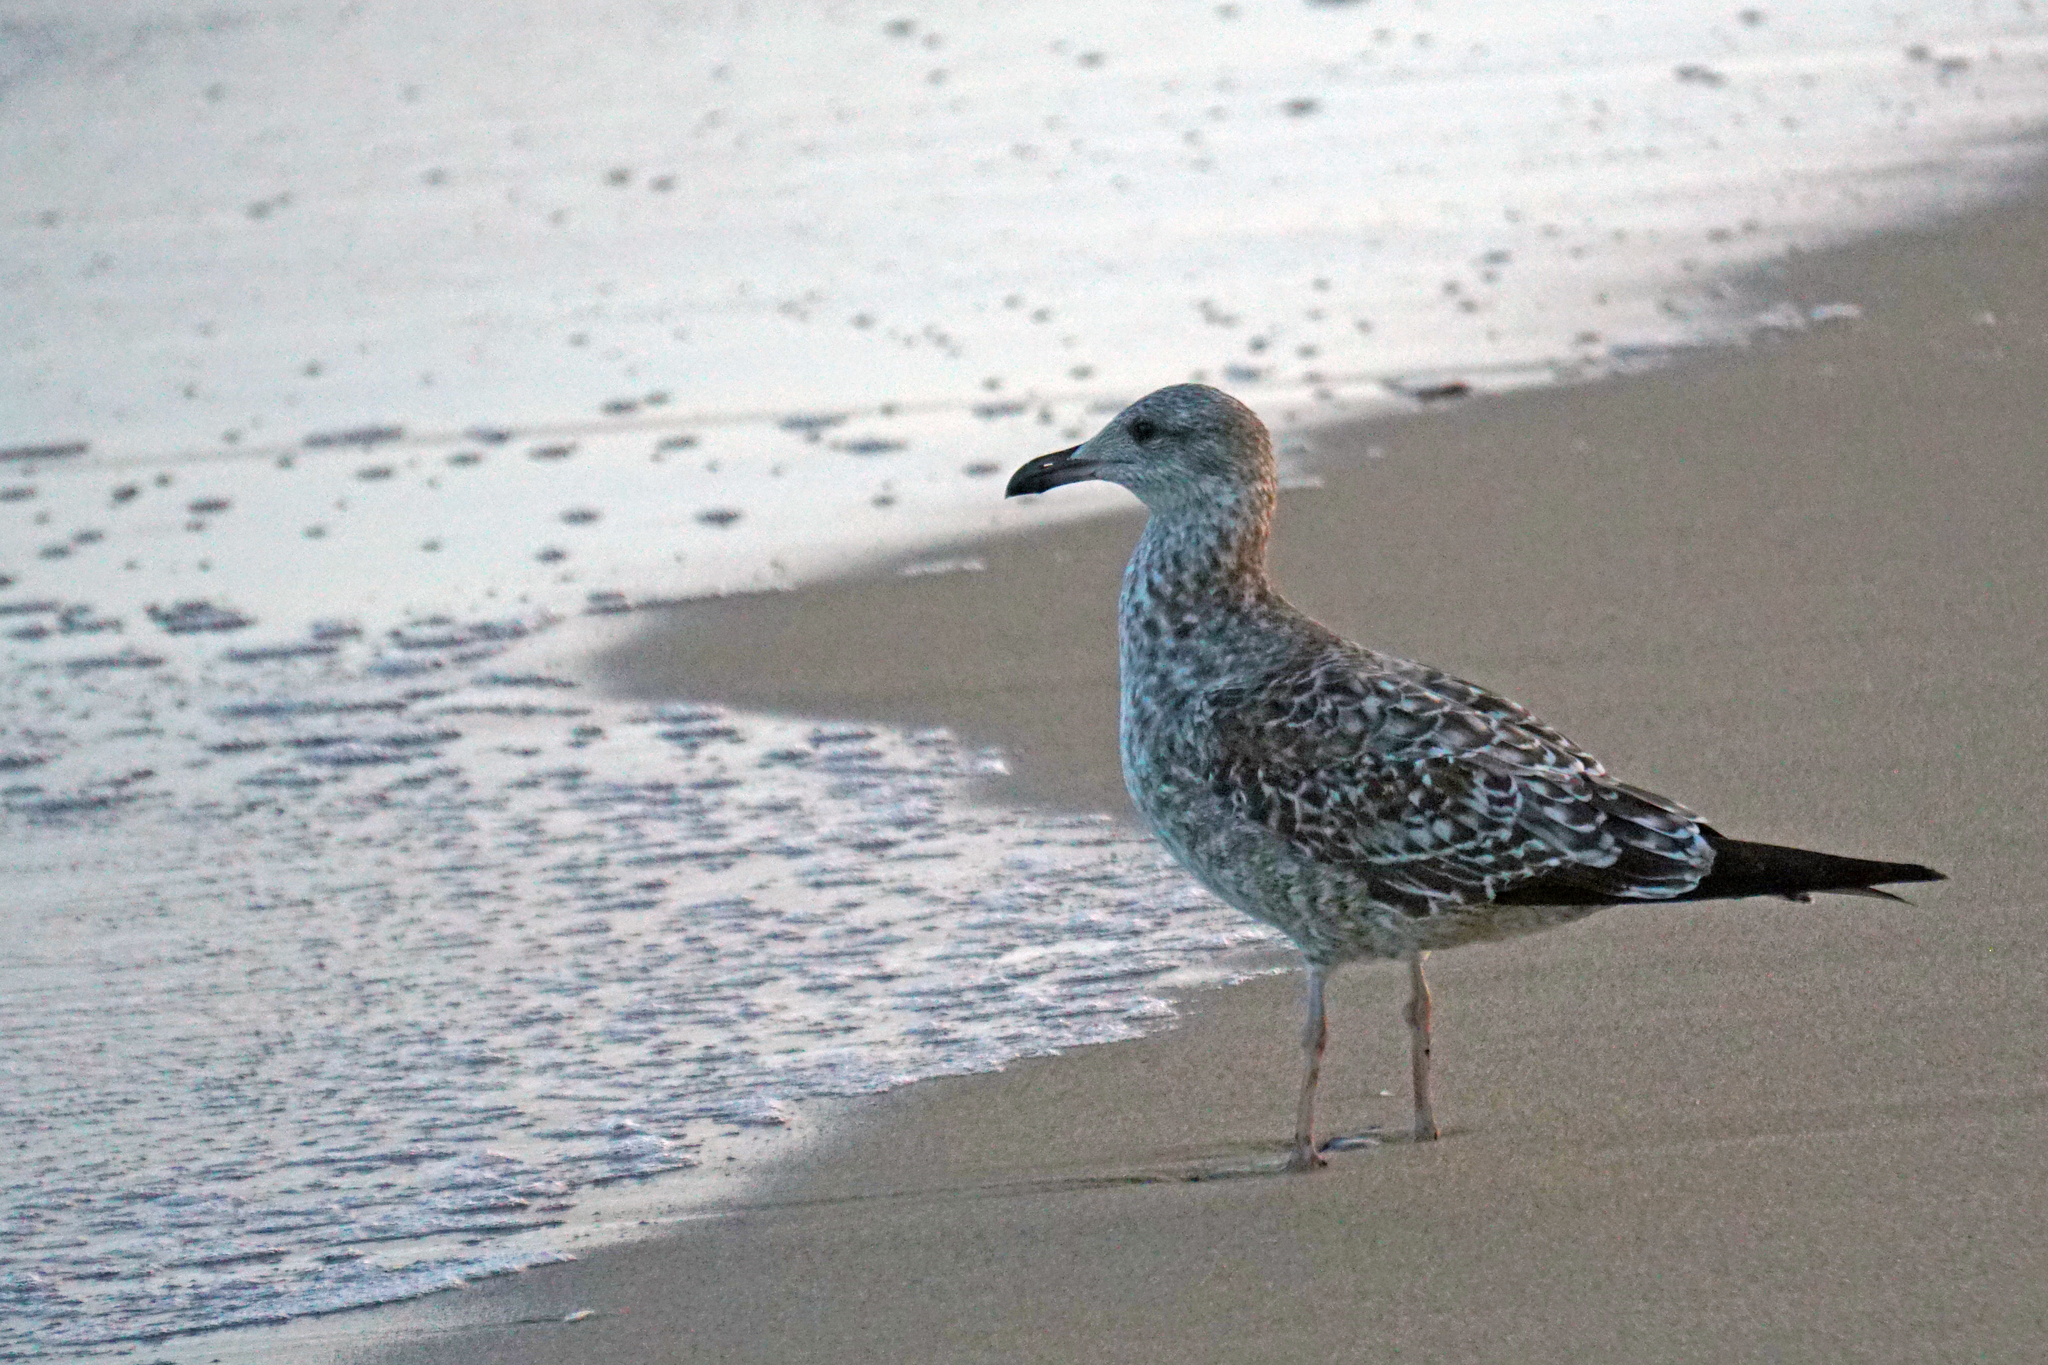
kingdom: Animalia
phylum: Chordata
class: Aves
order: Charadriiformes
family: Laridae
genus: Larus
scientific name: Larus fuscus
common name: Lesser black-backed gull
